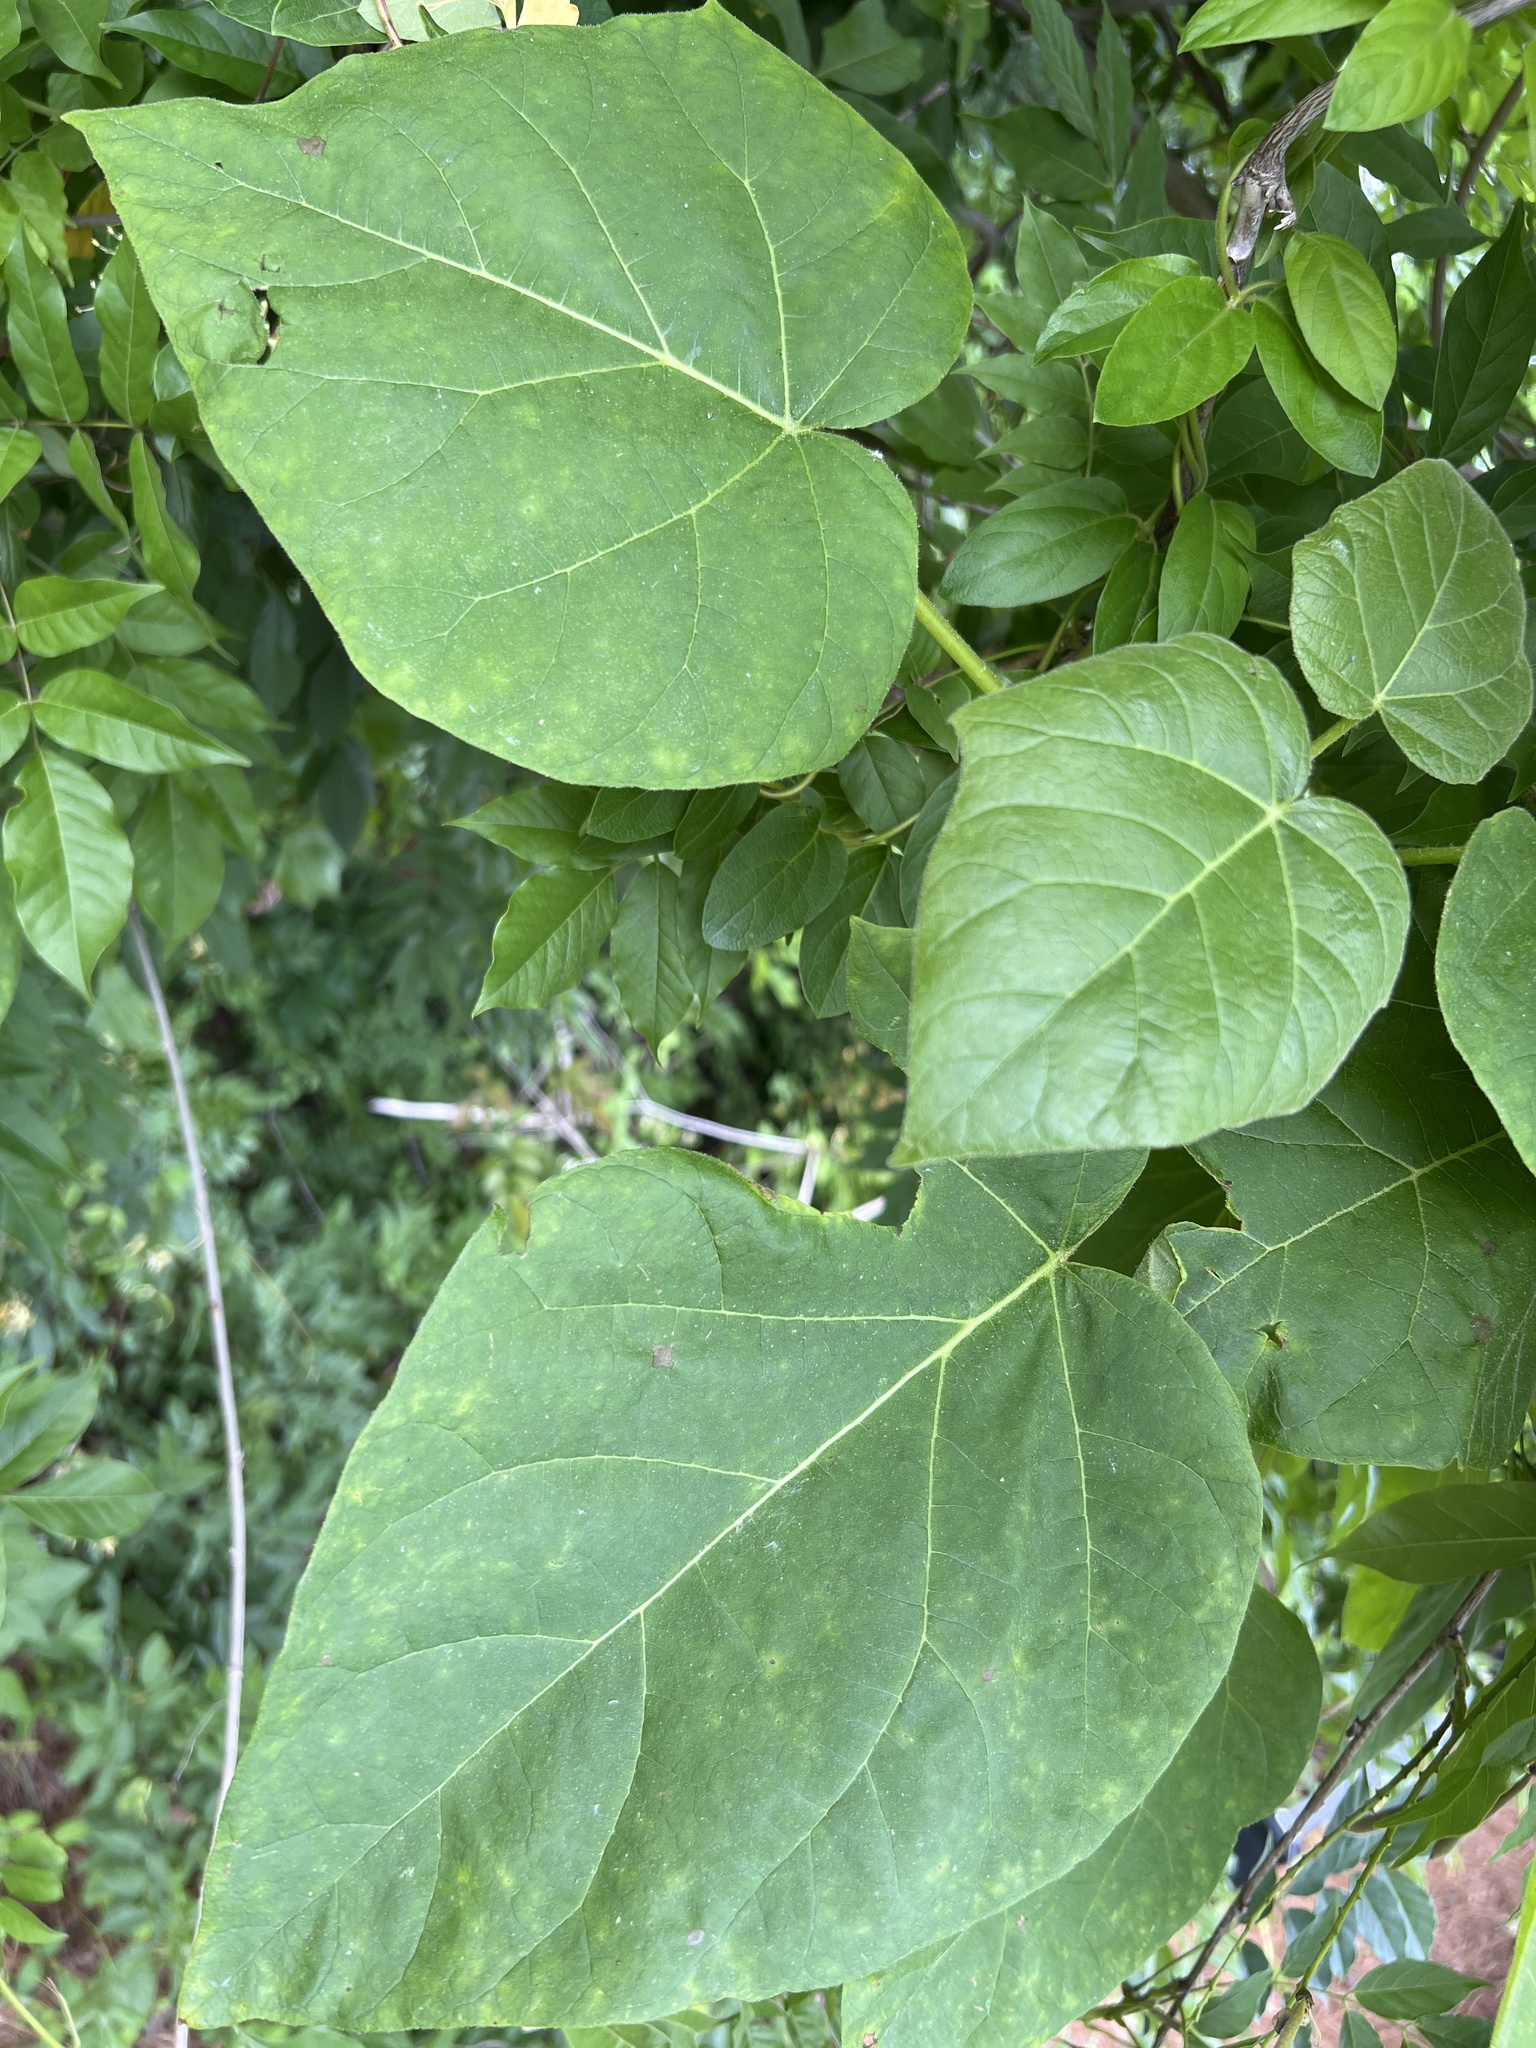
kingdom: Plantae
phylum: Tracheophyta
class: Magnoliopsida
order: Lamiales
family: Paulowniaceae
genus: Paulownia
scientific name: Paulownia tomentosa
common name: Foxglove-tree
